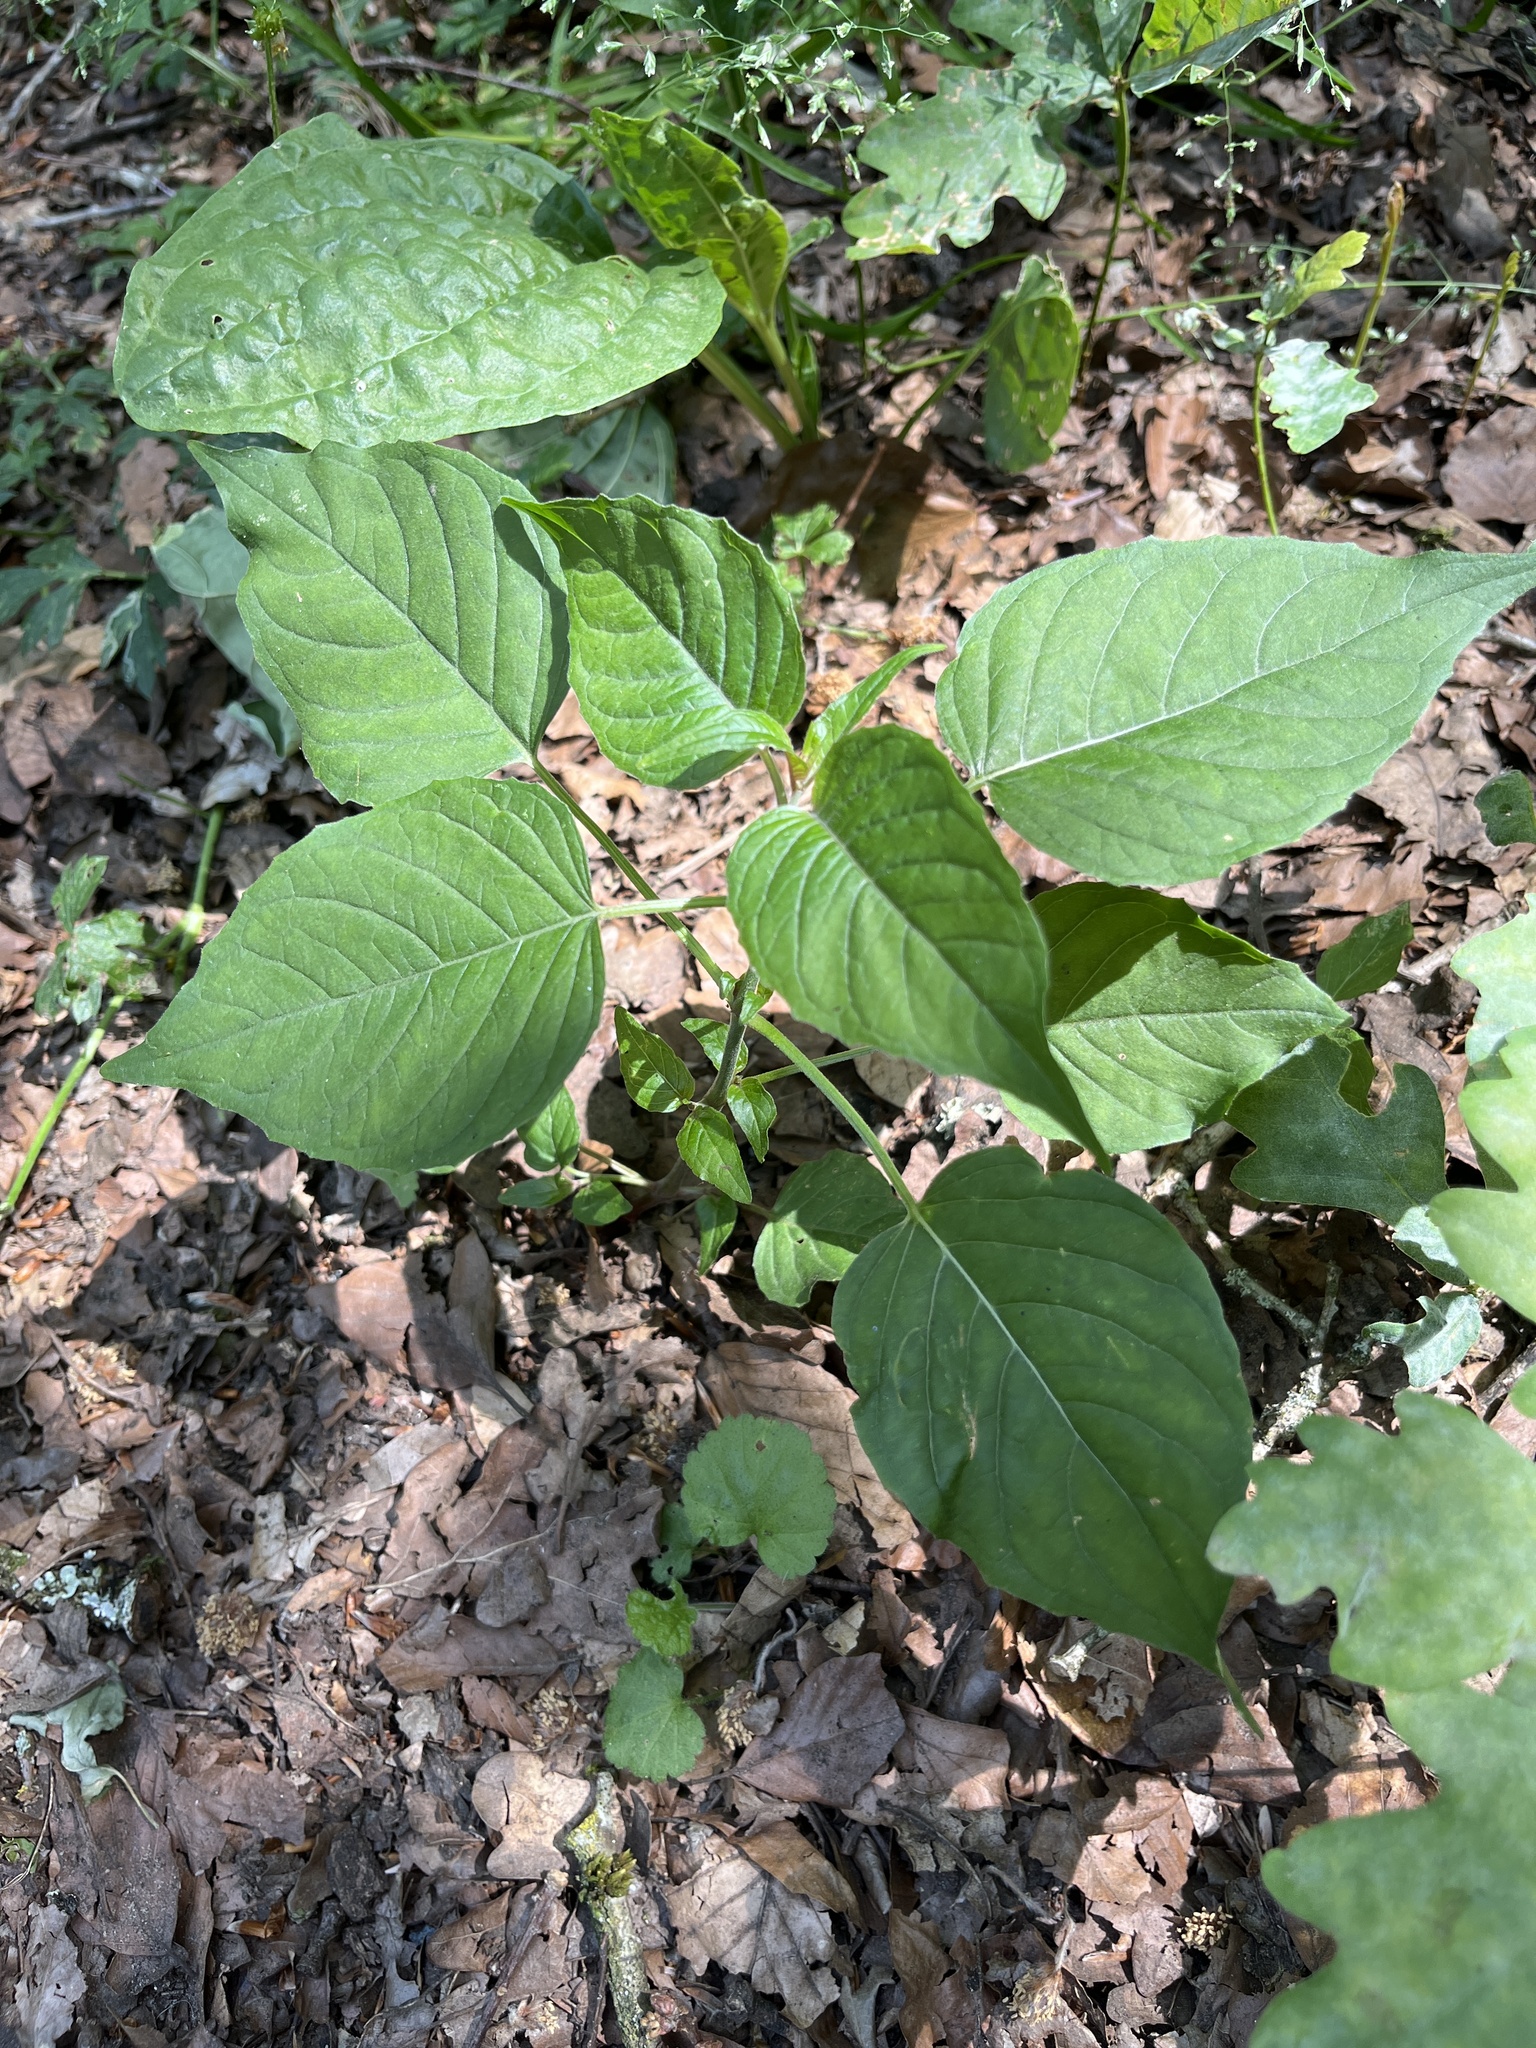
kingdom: Plantae
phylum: Tracheophyta
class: Magnoliopsida
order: Myrtales
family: Onagraceae
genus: Circaea
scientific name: Circaea lutetiana
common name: Enchanter's-nightshade
